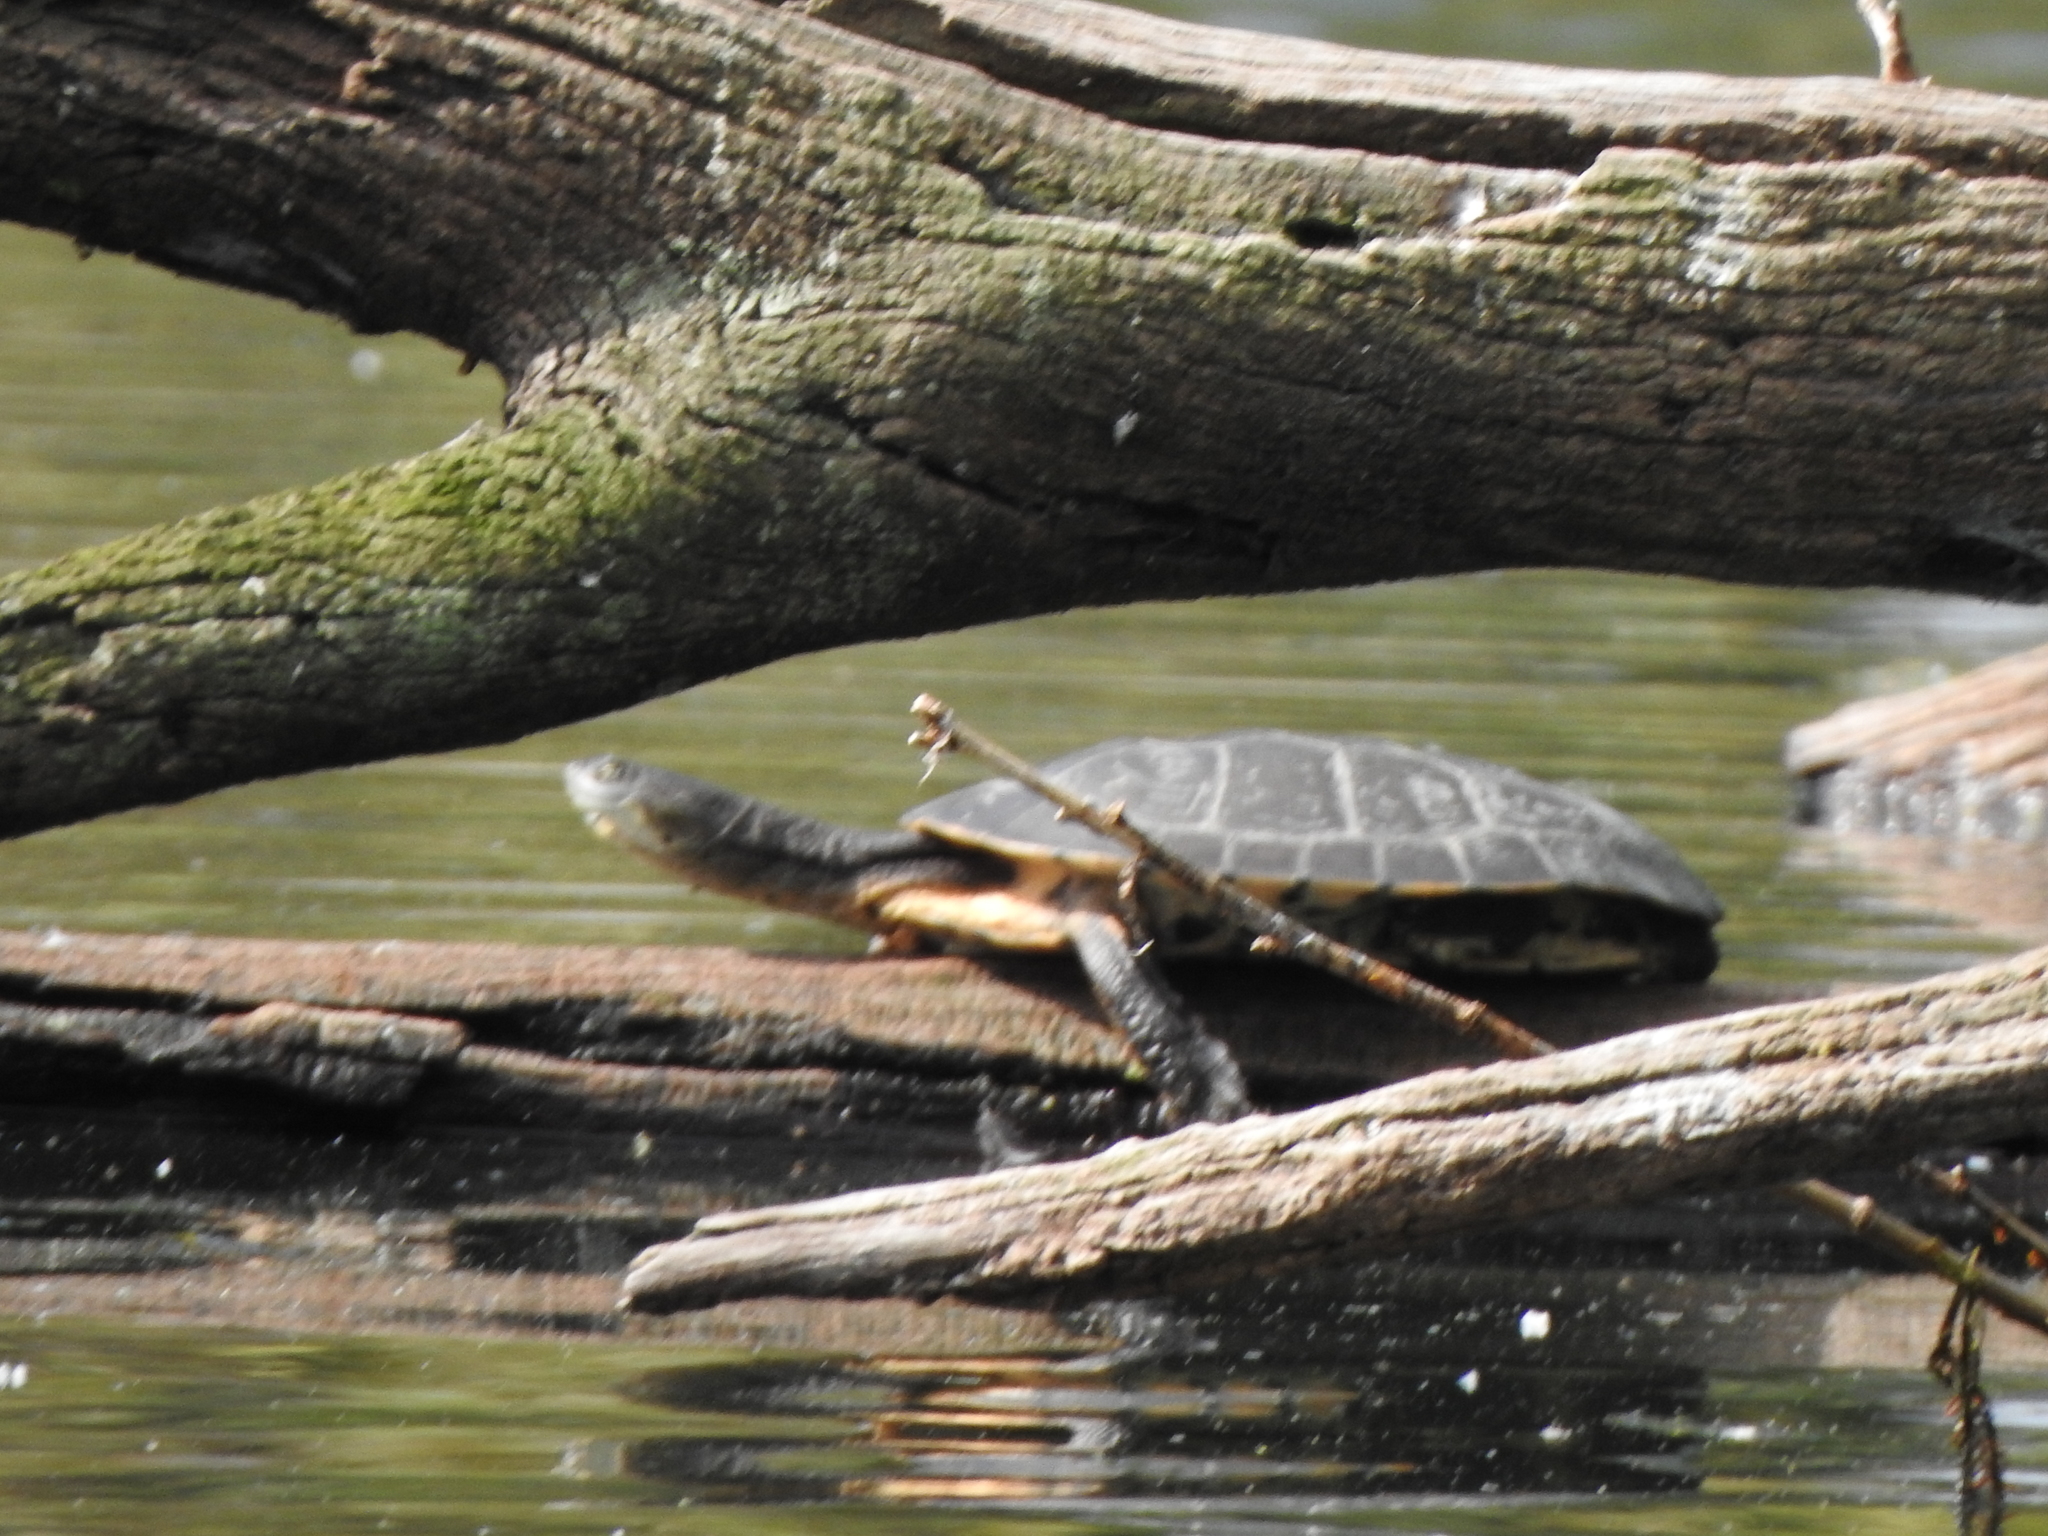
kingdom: Animalia
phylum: Chordata
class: Testudines
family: Chelidae
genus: Phrynops
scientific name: Phrynops hilarii
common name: Side-necked turtle of saint hillaire
